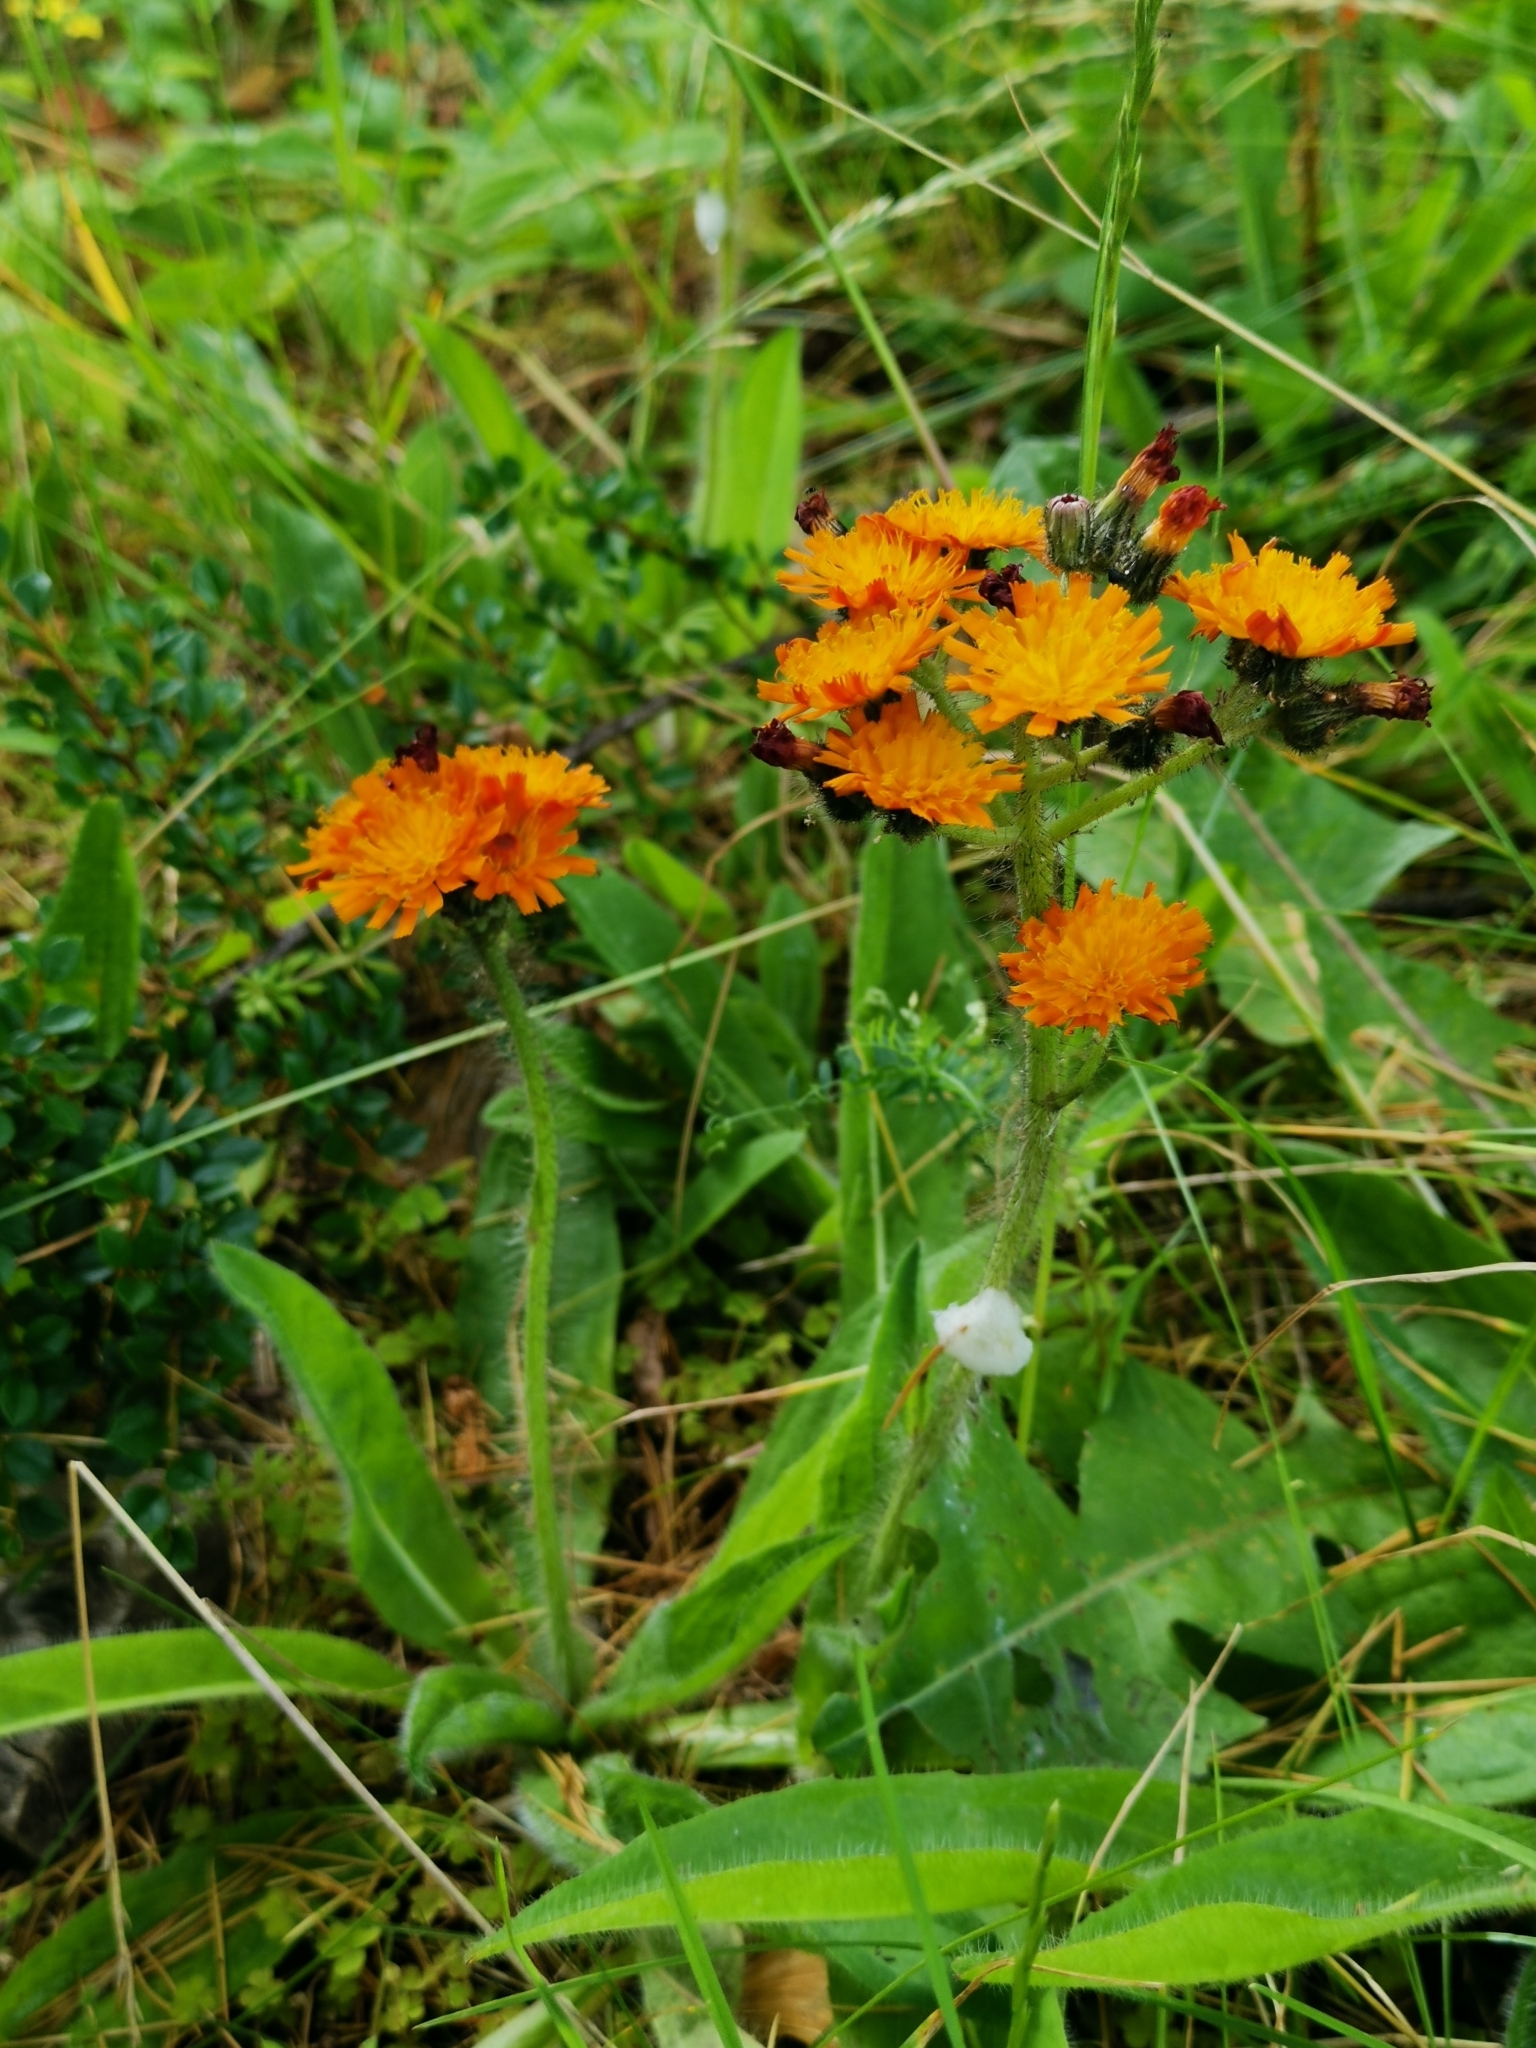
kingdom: Plantae
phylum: Tracheophyta
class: Magnoliopsida
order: Asterales
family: Asteraceae
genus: Pilosella
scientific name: Pilosella aurantiaca
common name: Fox-and-cubs
